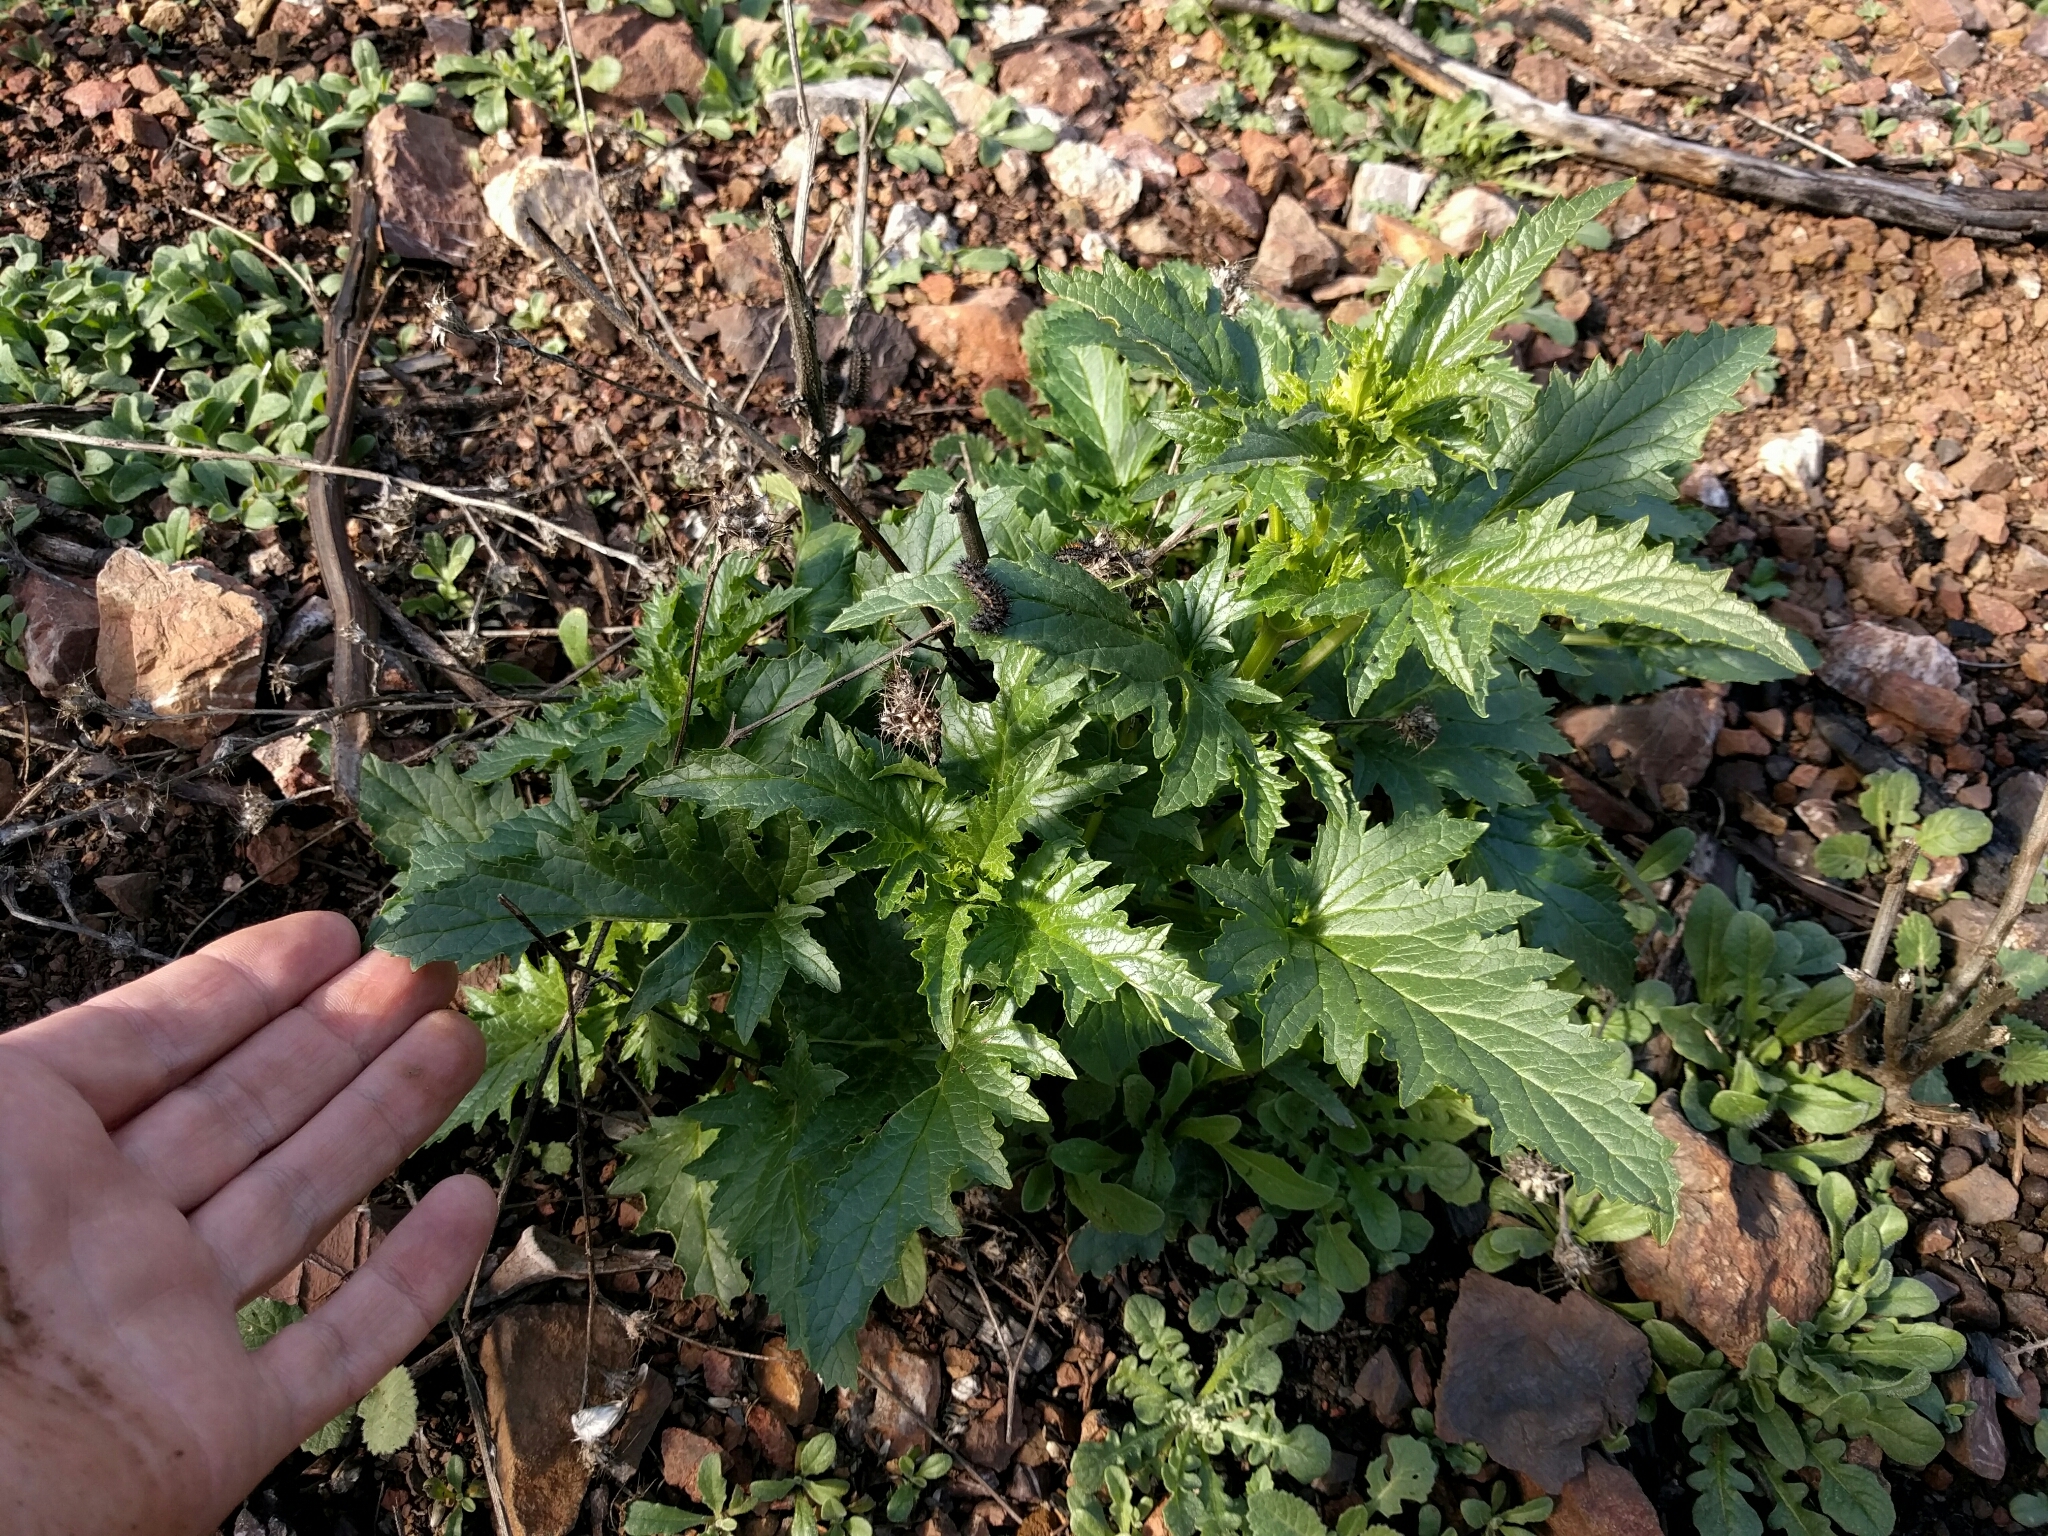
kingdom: Plantae
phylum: Tracheophyta
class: Magnoliopsida
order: Lamiales
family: Scrophulariaceae
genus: Scrophularia
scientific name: Scrophularia californica
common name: California figwort
